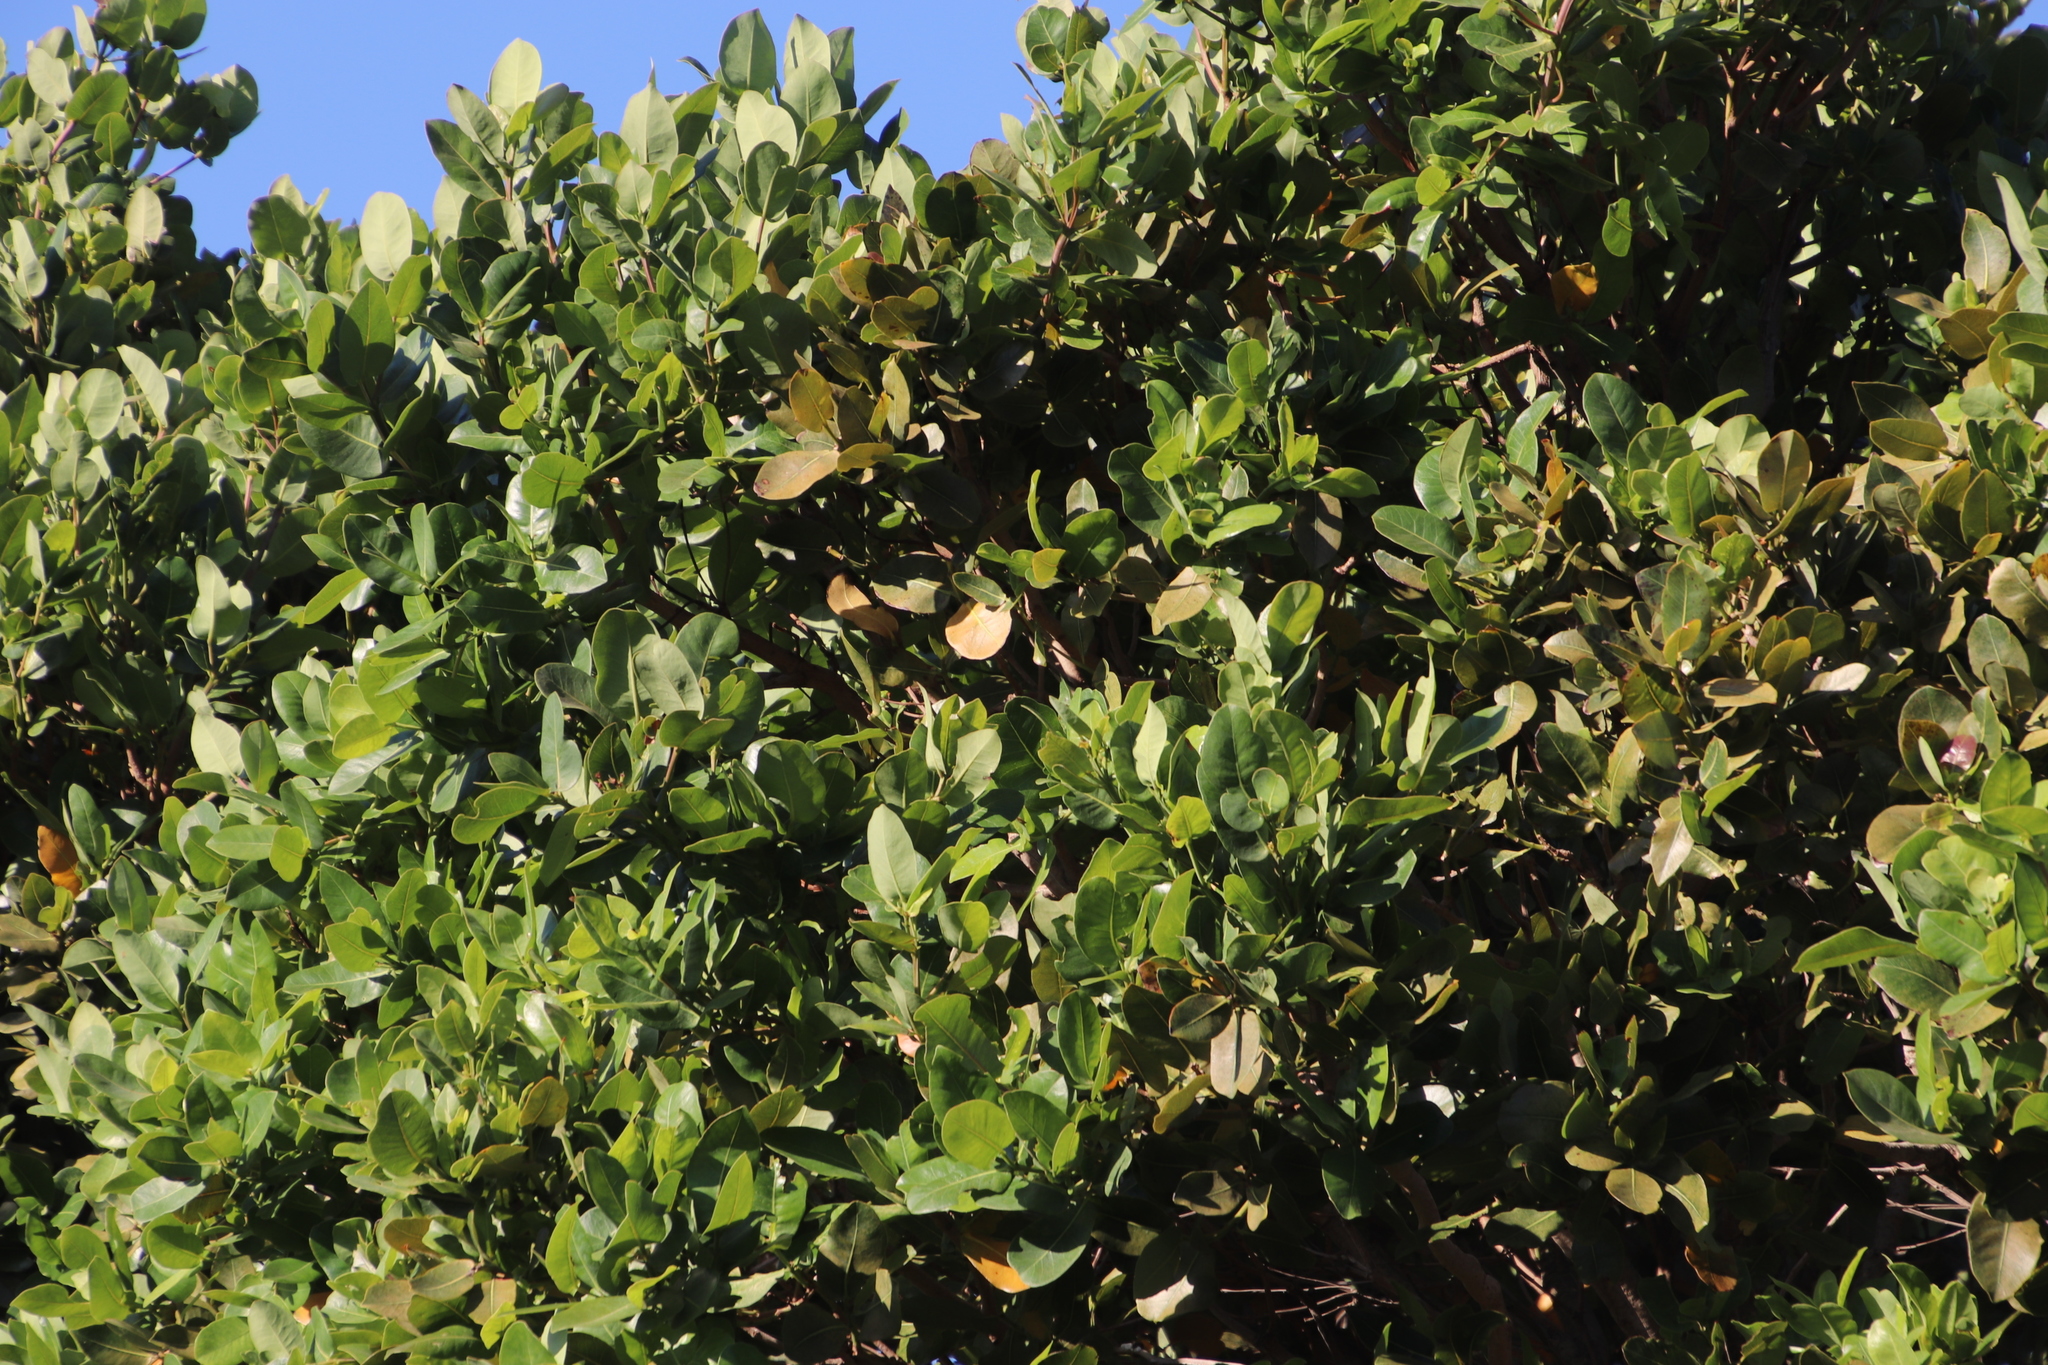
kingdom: Plantae
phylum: Tracheophyta
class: Magnoliopsida
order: Myrtales
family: Myrtaceae
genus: Syzygium
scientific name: Syzygium cordatum
